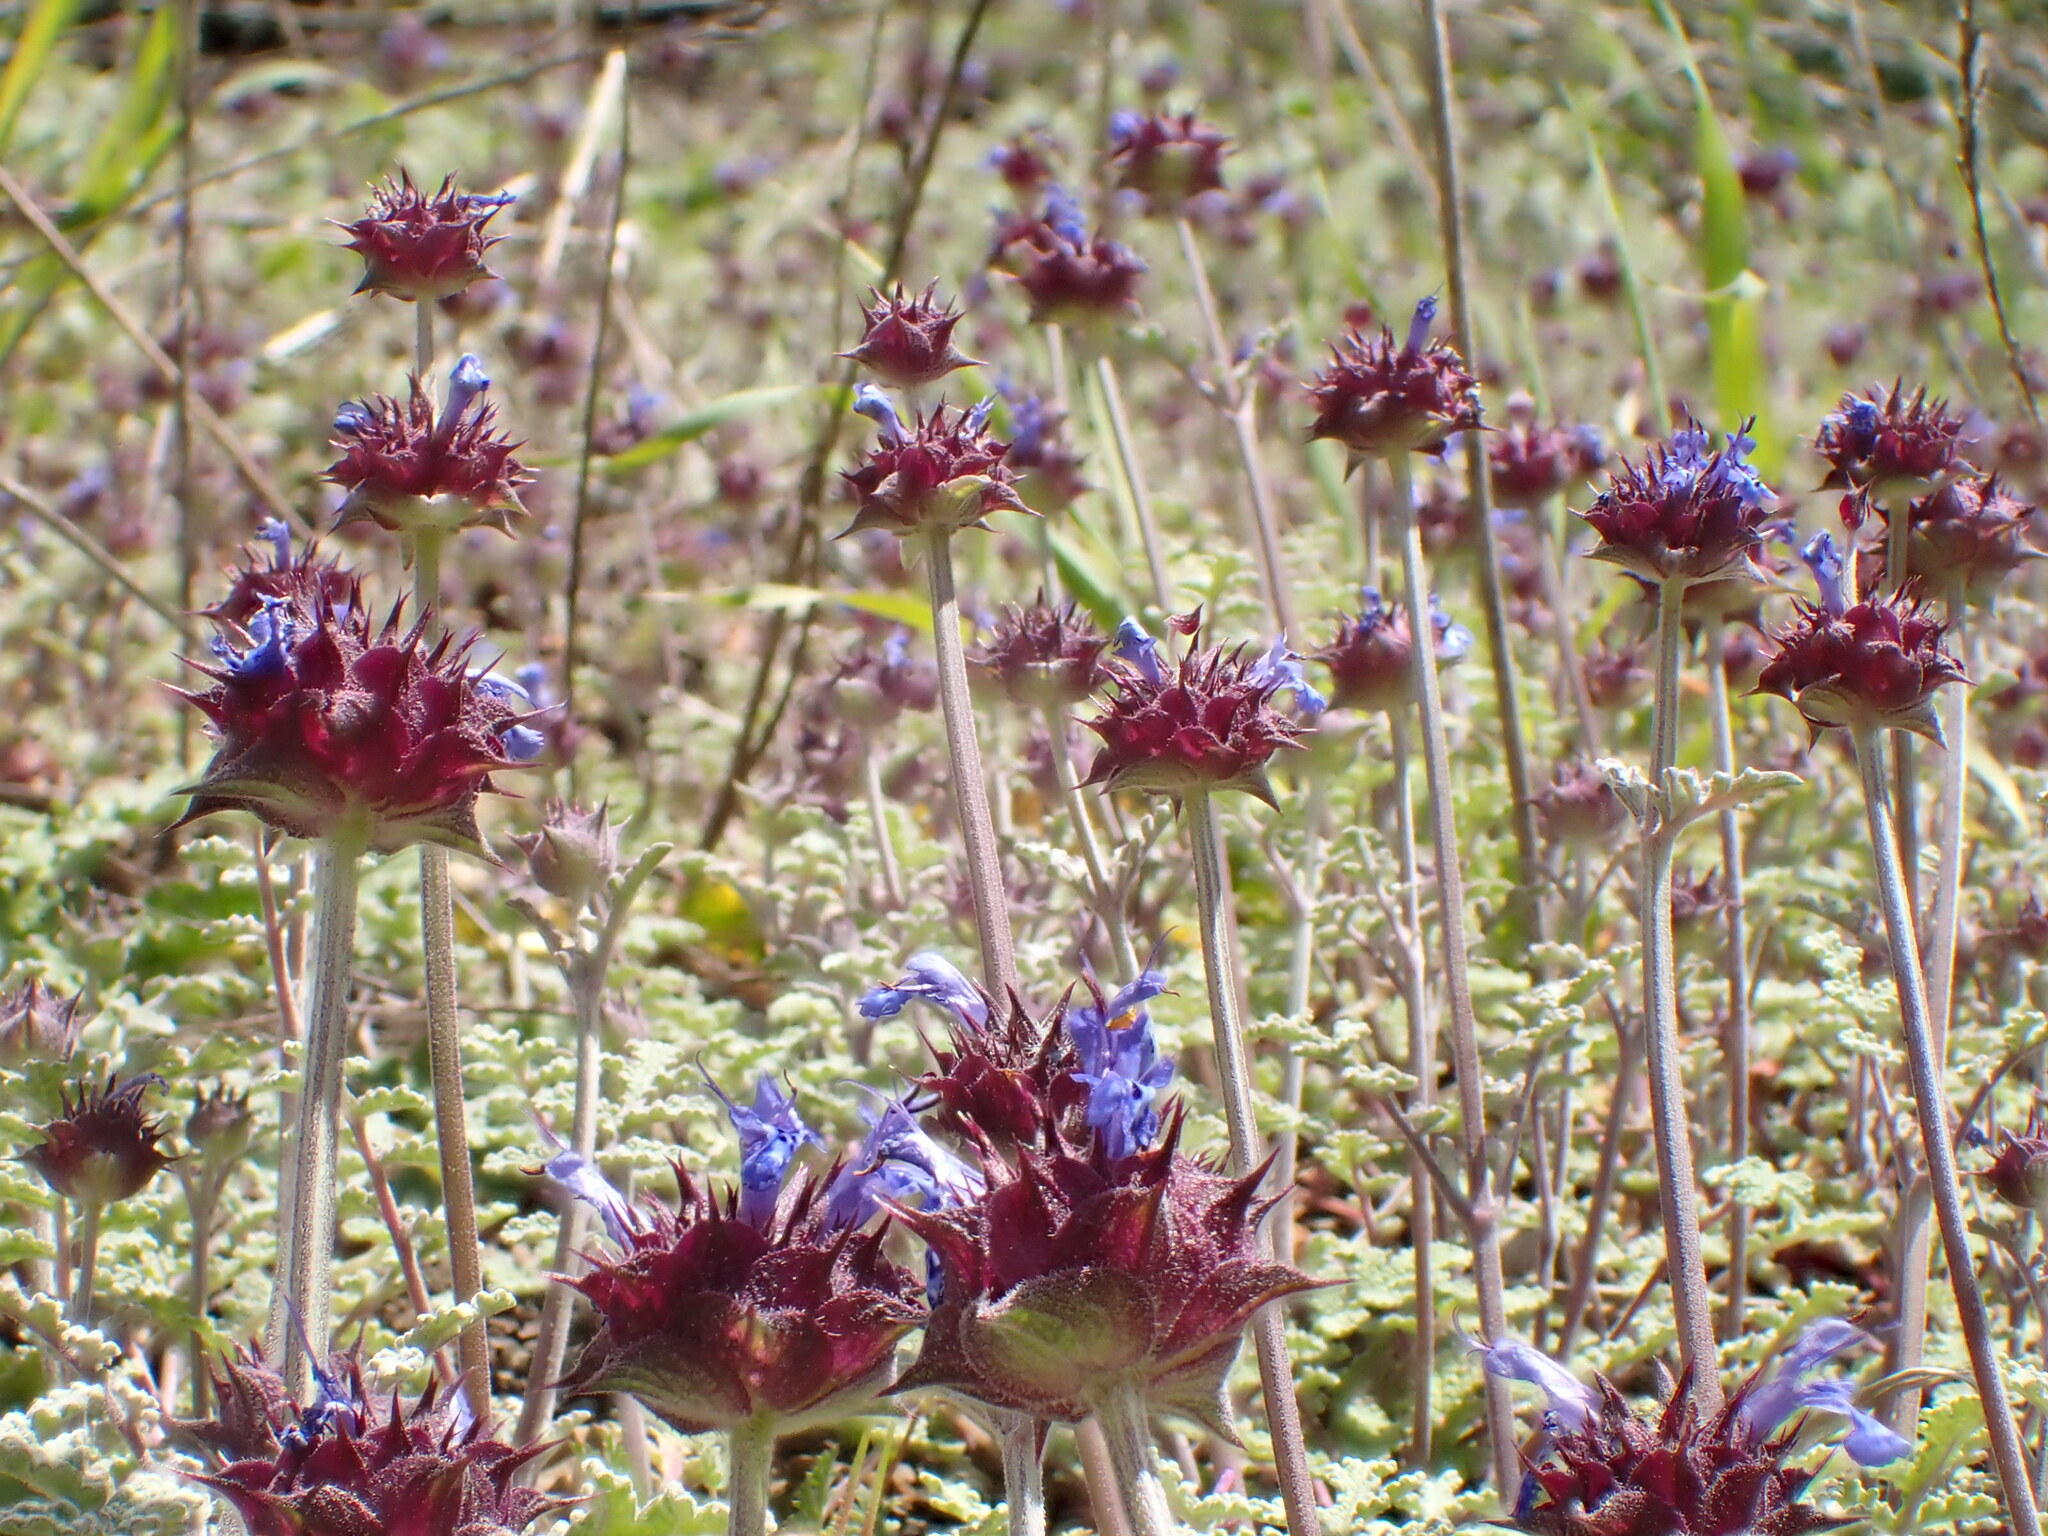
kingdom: Plantae
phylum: Tracheophyta
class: Magnoliopsida
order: Lamiales
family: Lamiaceae
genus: Salvia
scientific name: Salvia columbariae
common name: Chia
